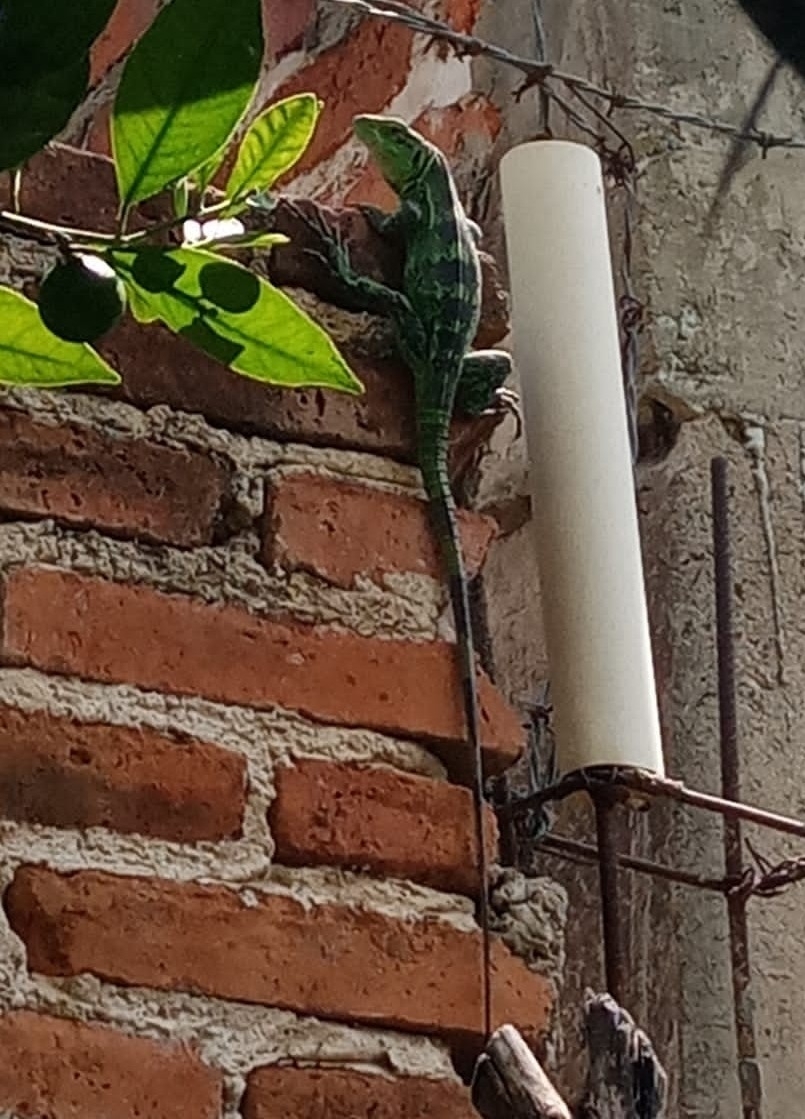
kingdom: Animalia
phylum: Chordata
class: Squamata
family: Iguanidae
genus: Ctenosaura
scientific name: Ctenosaura pectinata
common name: Guerreran spiny-tailed iguana
